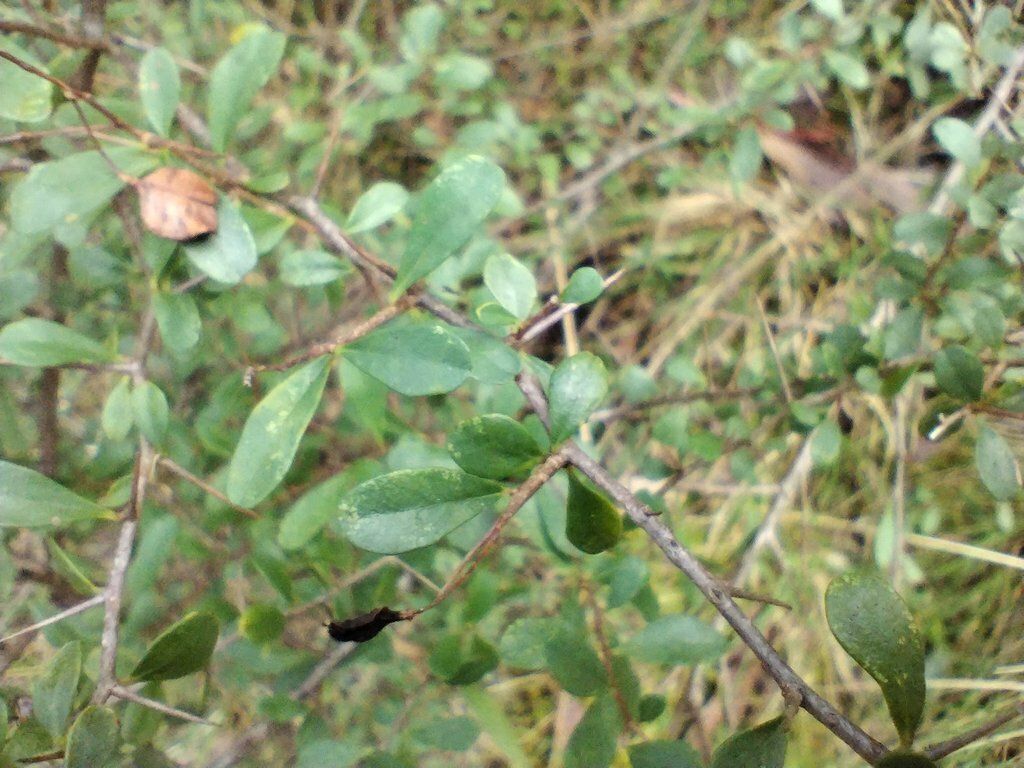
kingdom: Plantae
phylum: Tracheophyta
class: Magnoliopsida
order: Apiales
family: Pittosporaceae
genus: Bursaria
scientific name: Bursaria spinosa
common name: Australian blackthorn
